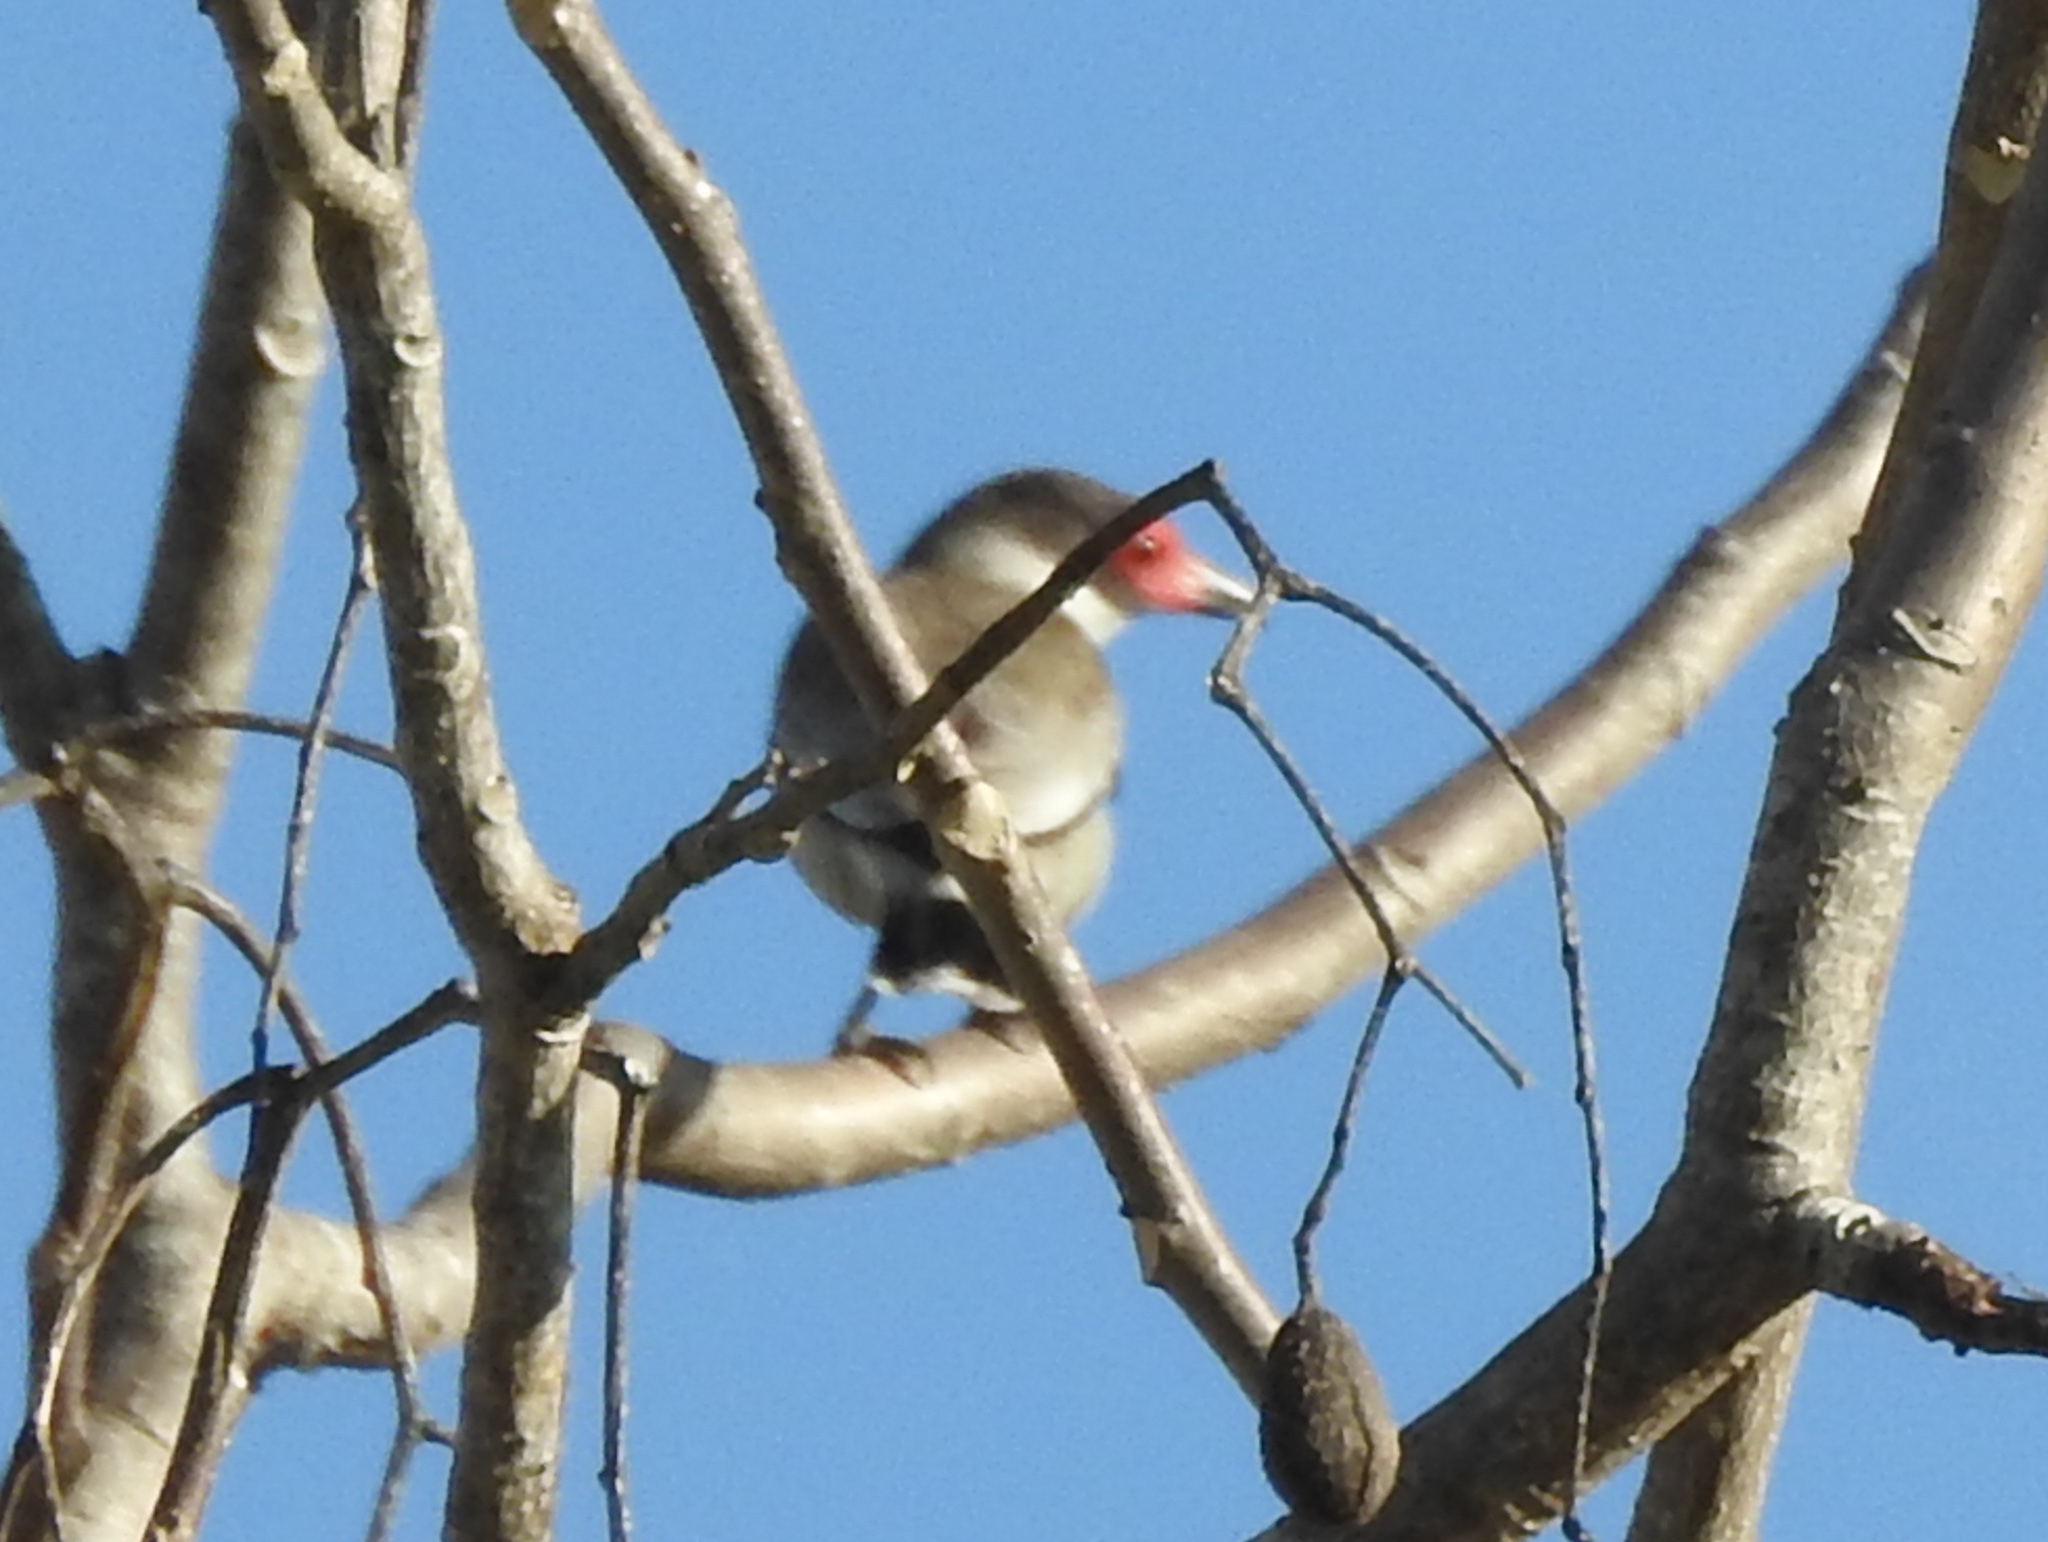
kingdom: Animalia
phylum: Chordata
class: Aves
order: Passeriformes
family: Cotingidae
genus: Tityra
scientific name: Tityra semifasciata
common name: Masked tityra
